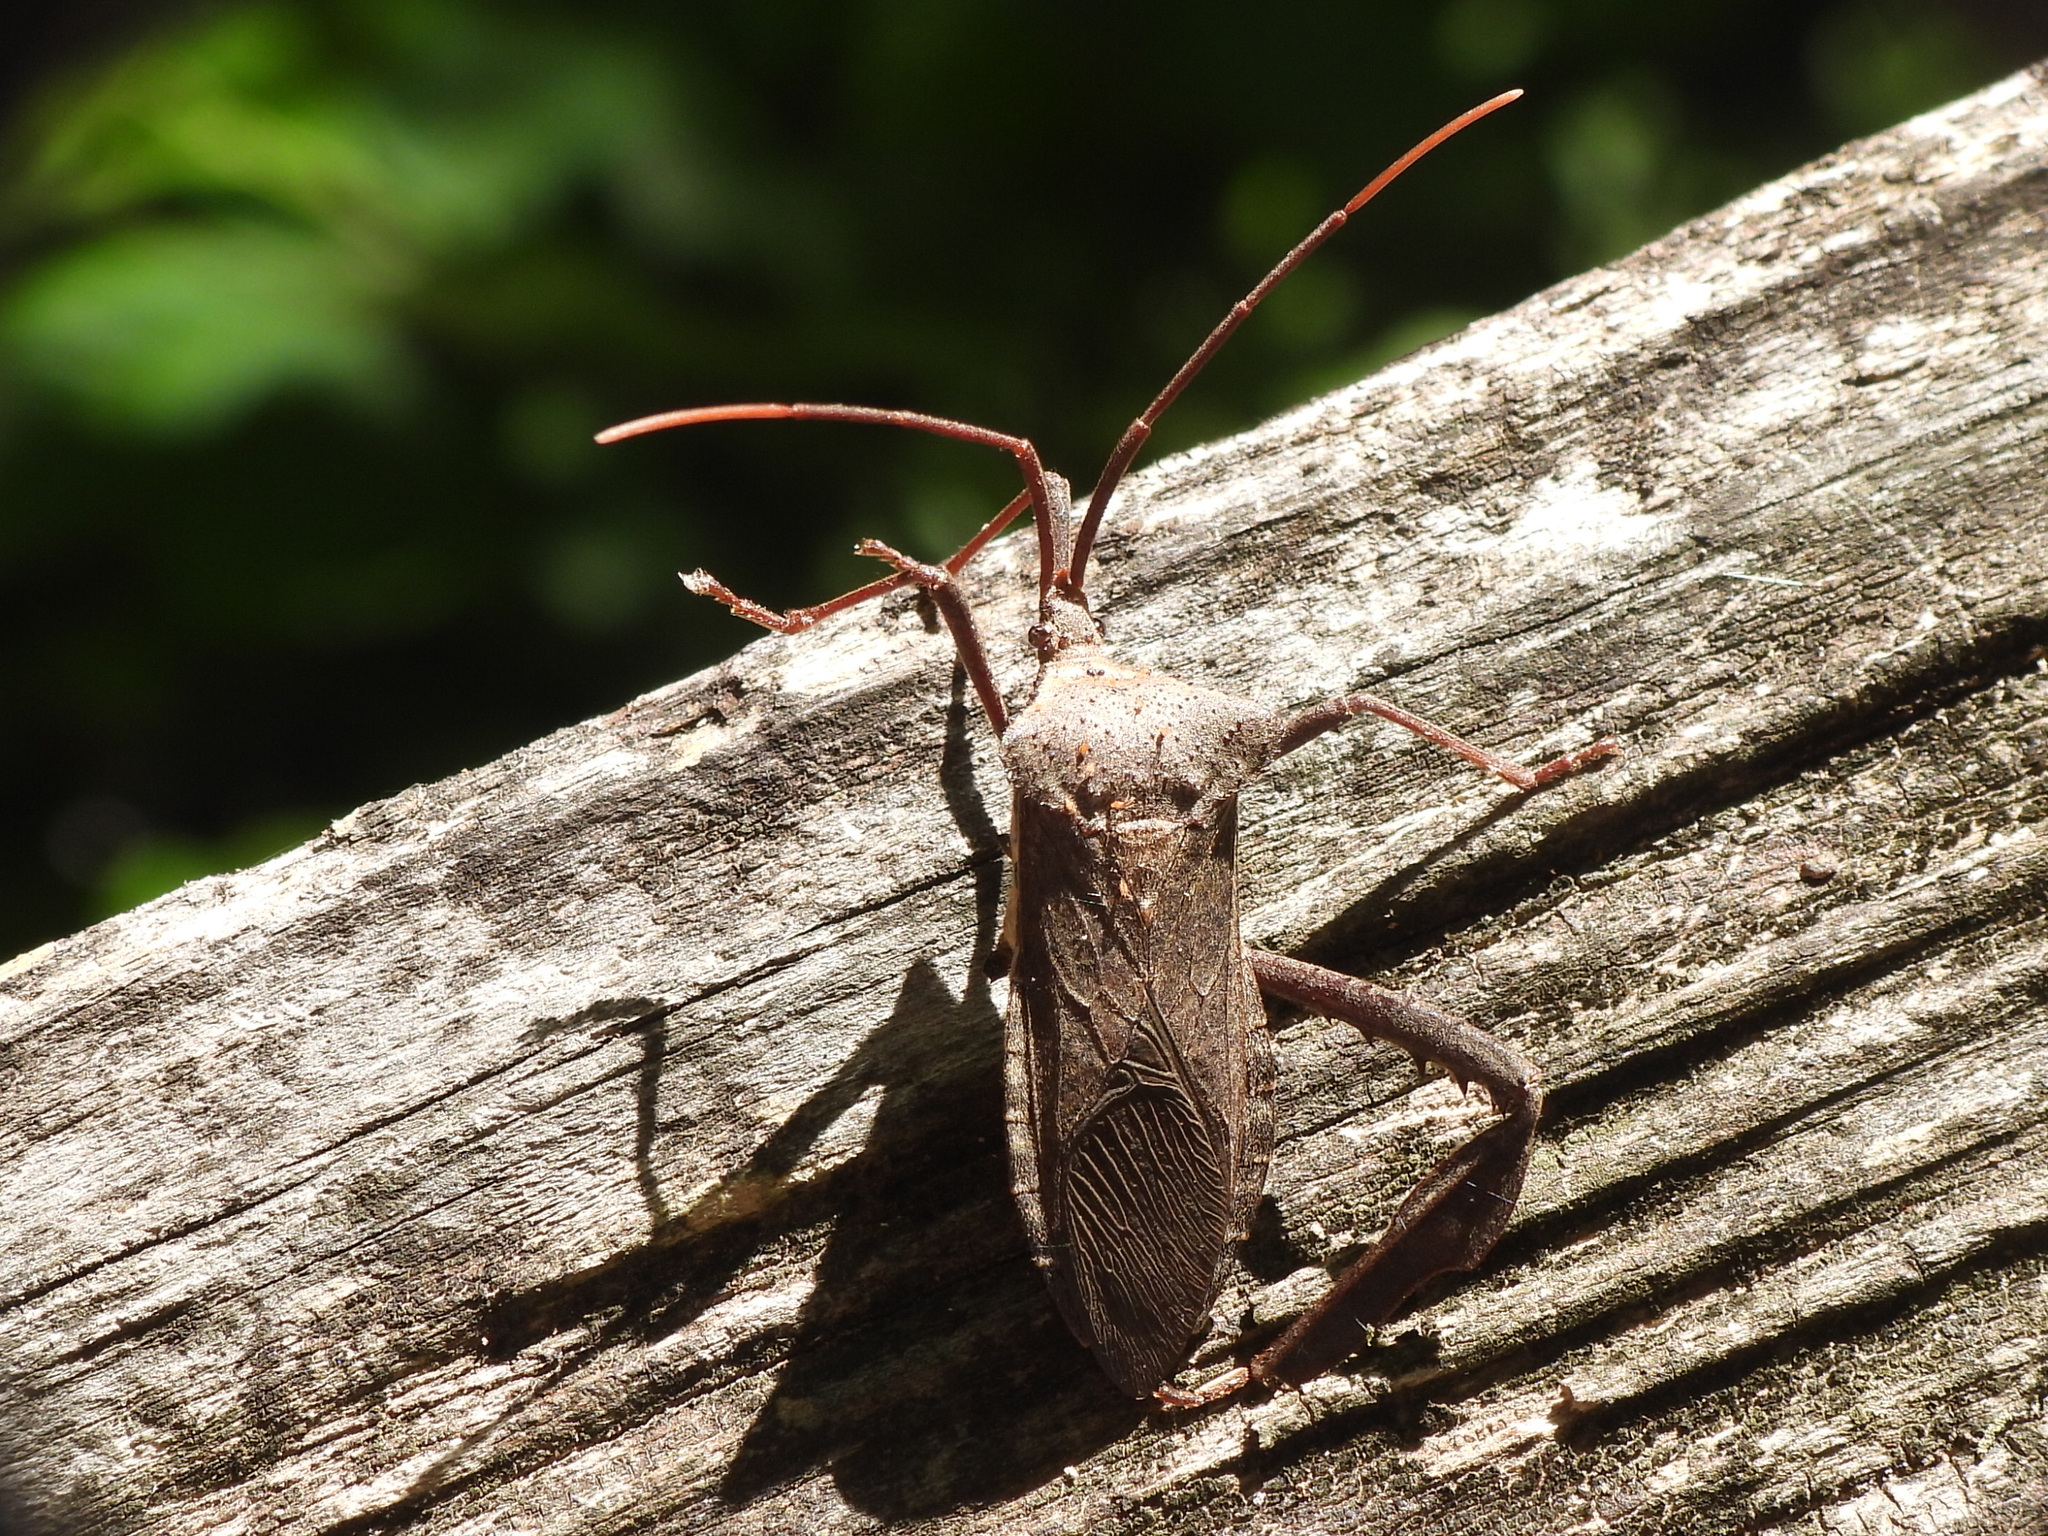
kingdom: Animalia
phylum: Arthropoda
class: Insecta
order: Hemiptera
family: Coreidae
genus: Acanthocephala
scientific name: Acanthocephala declivis
